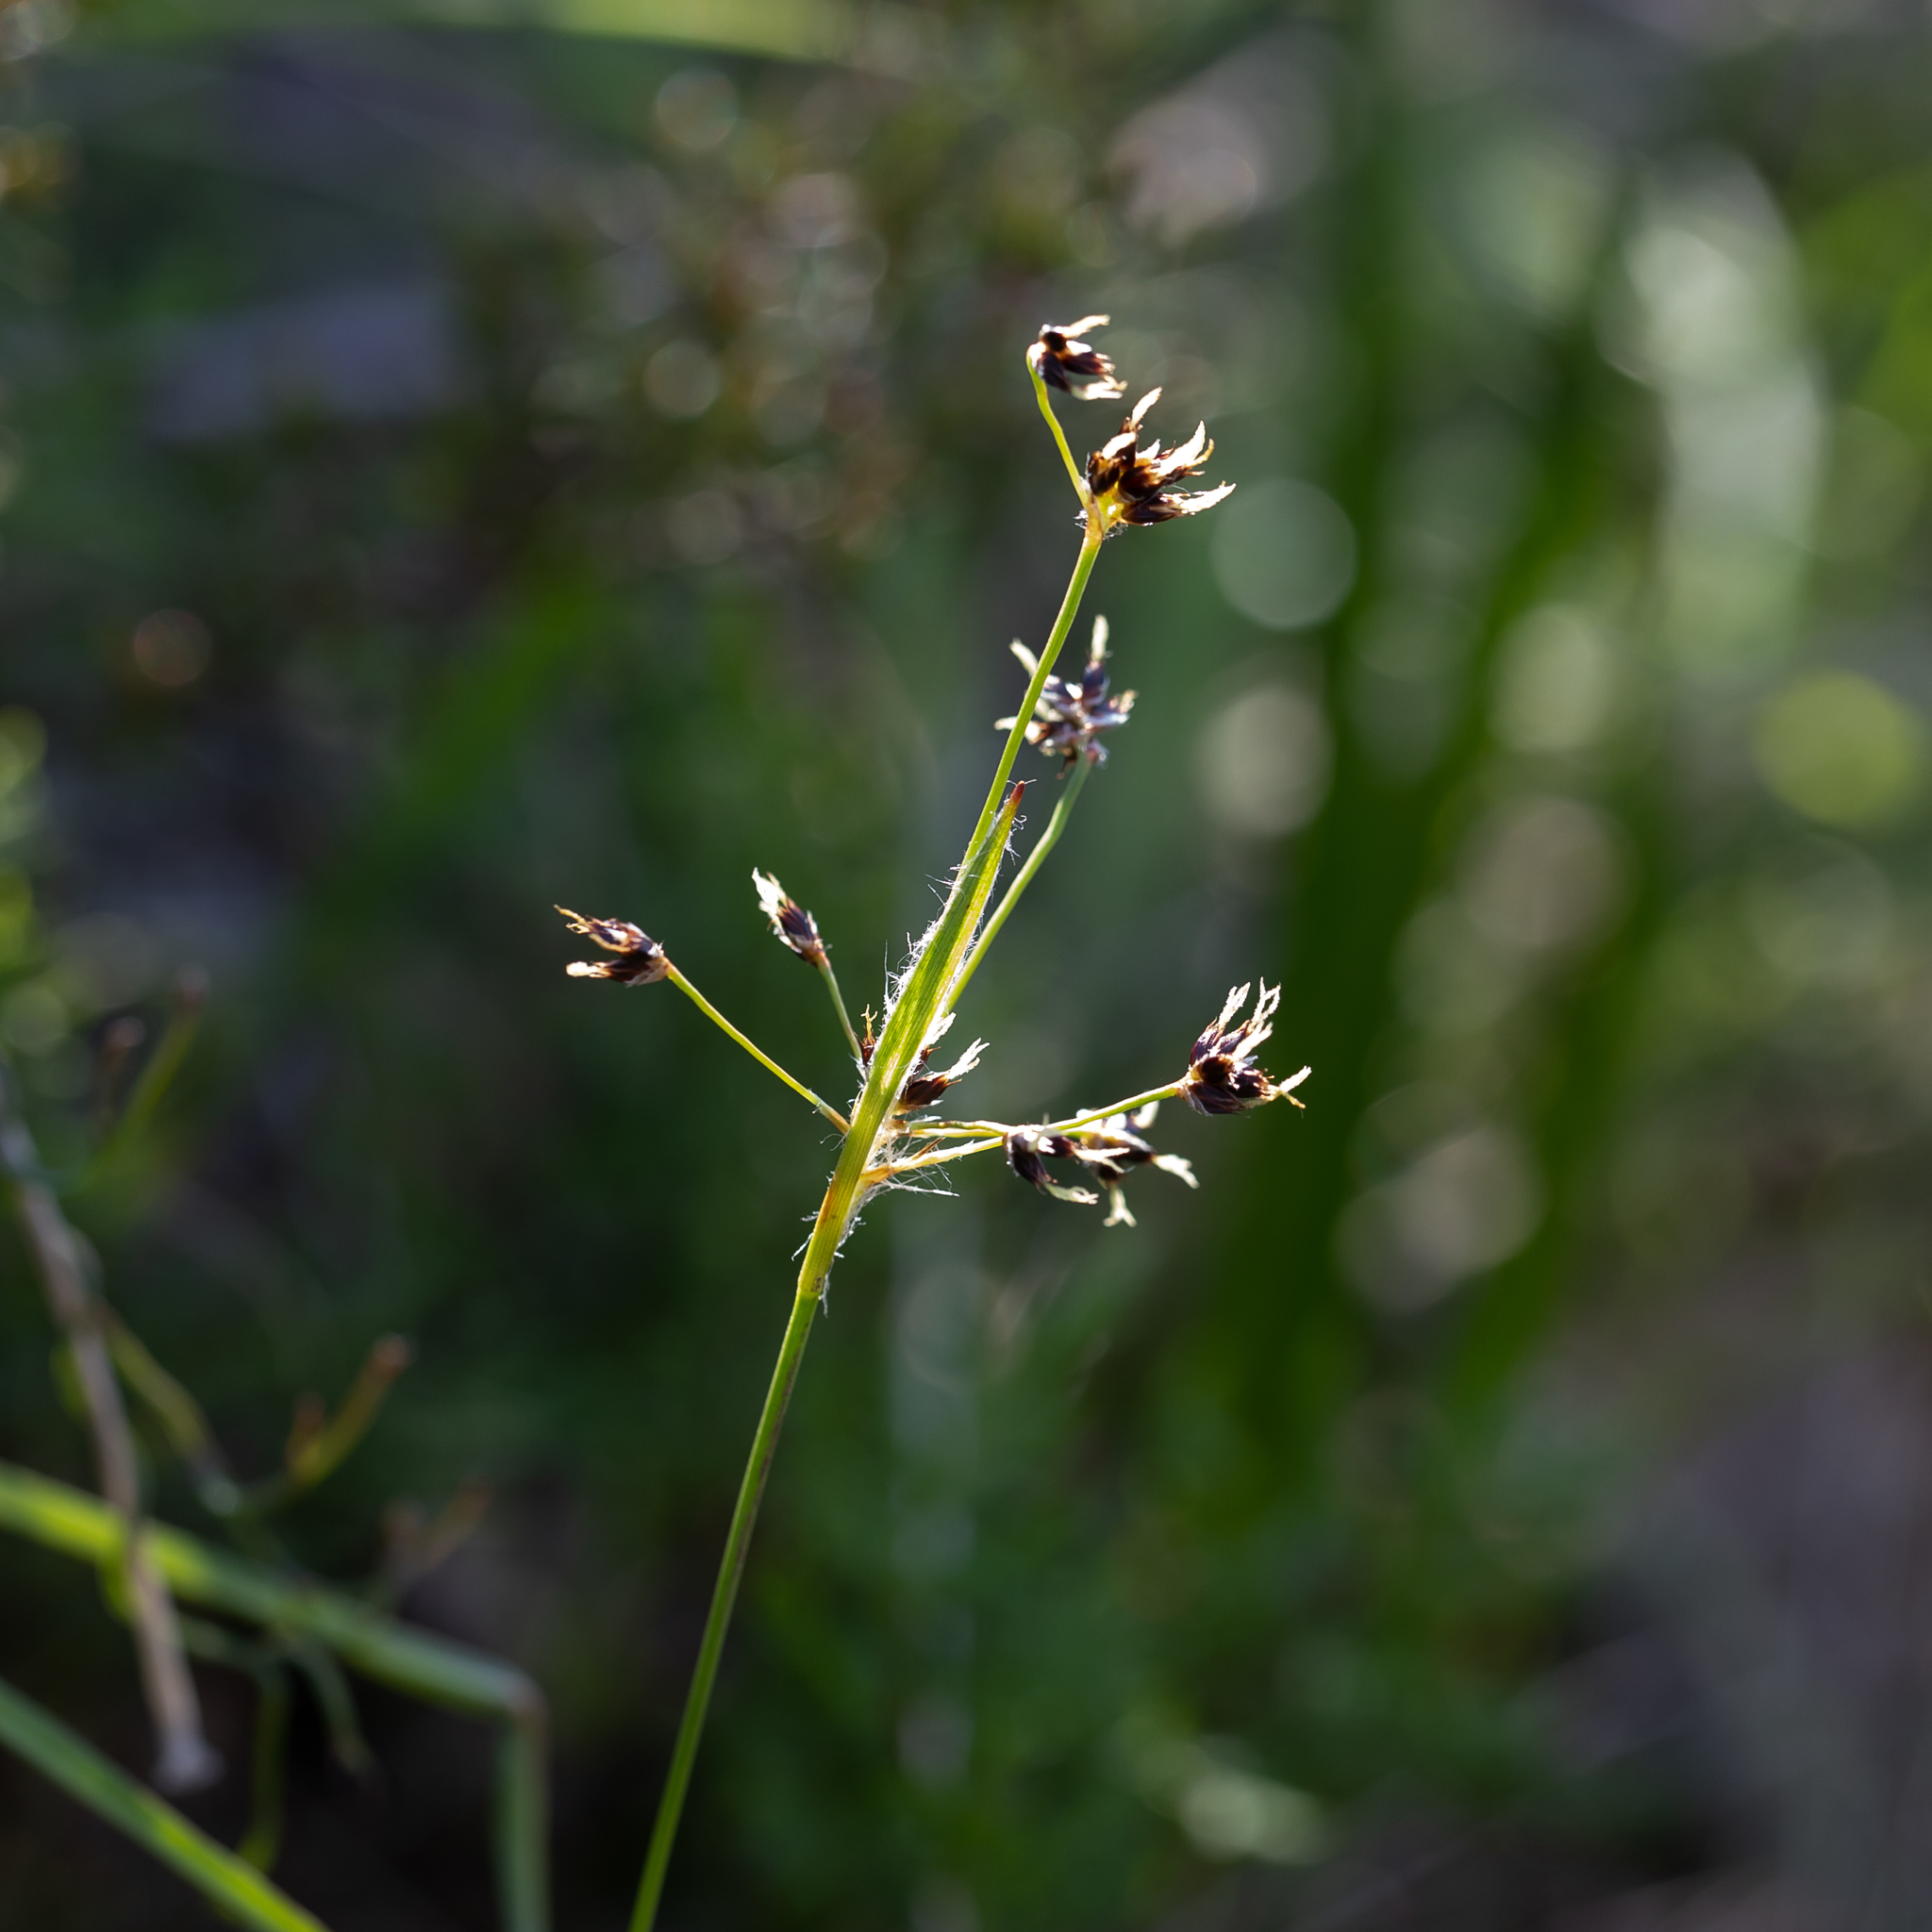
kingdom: Plantae
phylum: Tracheophyta
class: Liliopsida
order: Poales
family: Juncaceae
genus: Luzula
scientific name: Luzula meridionalis
